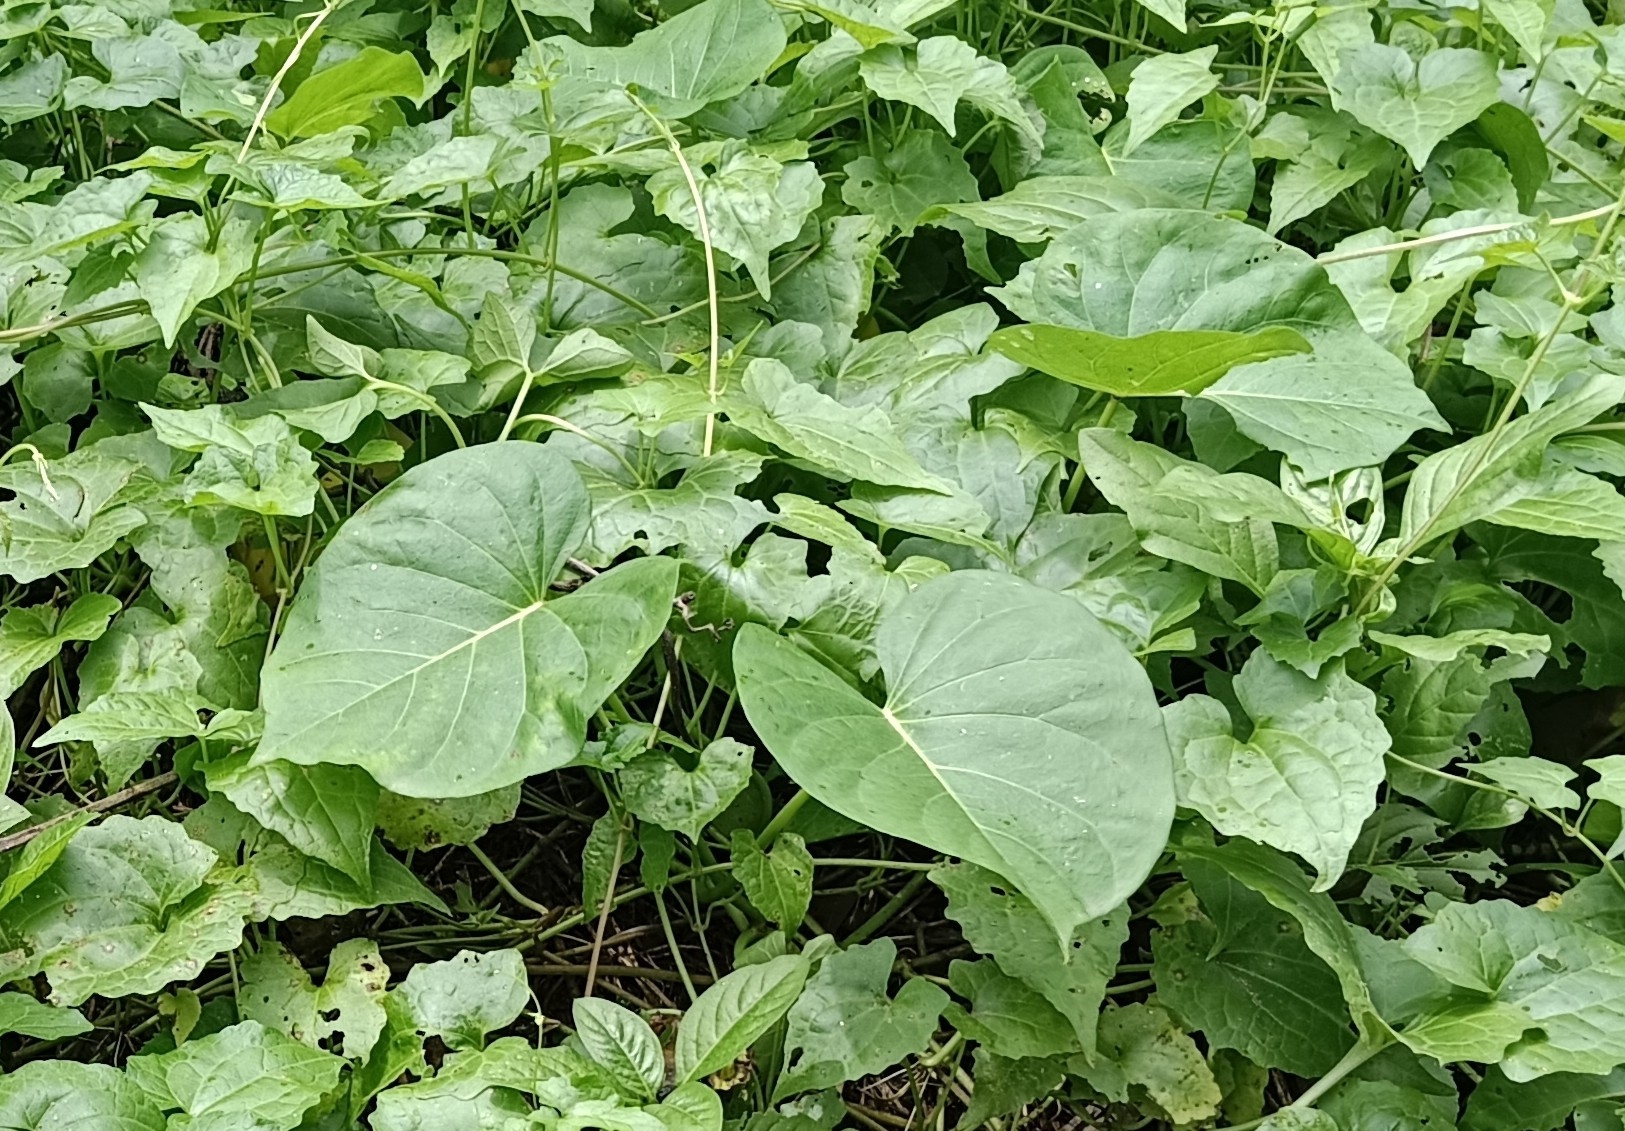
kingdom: Plantae
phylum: Tracheophyta
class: Magnoliopsida
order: Solanales
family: Convolvulaceae
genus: Ipomoea
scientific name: Ipomoea violacea
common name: Beach moonflower
